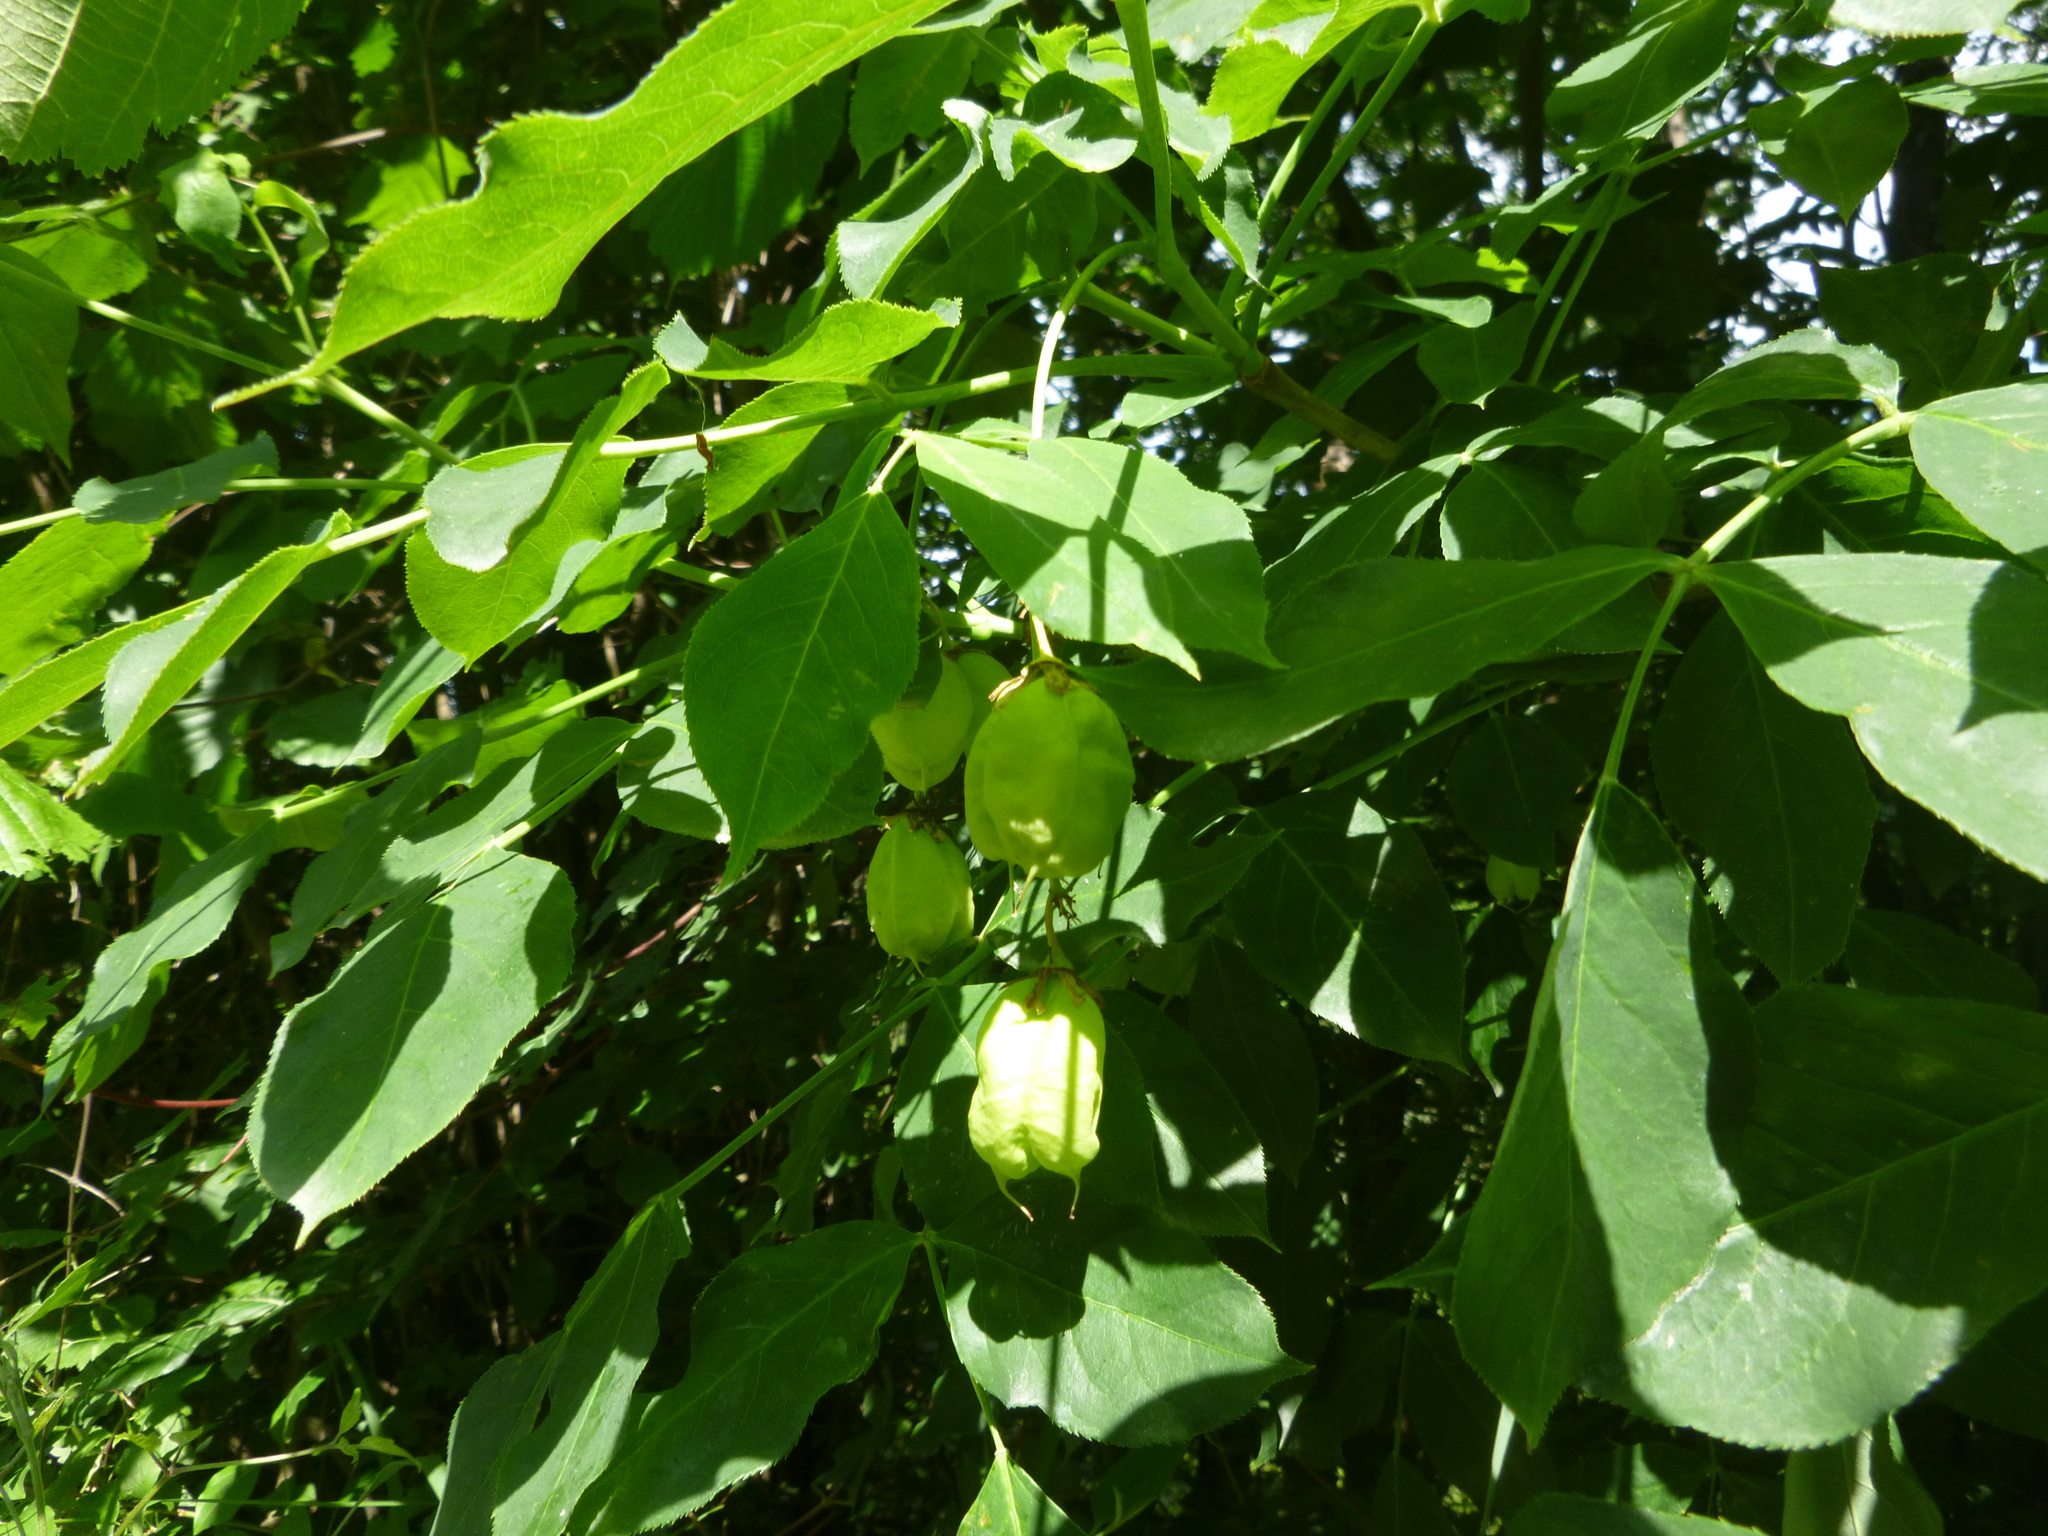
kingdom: Plantae
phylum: Tracheophyta
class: Magnoliopsida
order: Crossosomatales
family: Staphyleaceae
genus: Staphylea
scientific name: Staphylea pinnata
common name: Bladdernut
